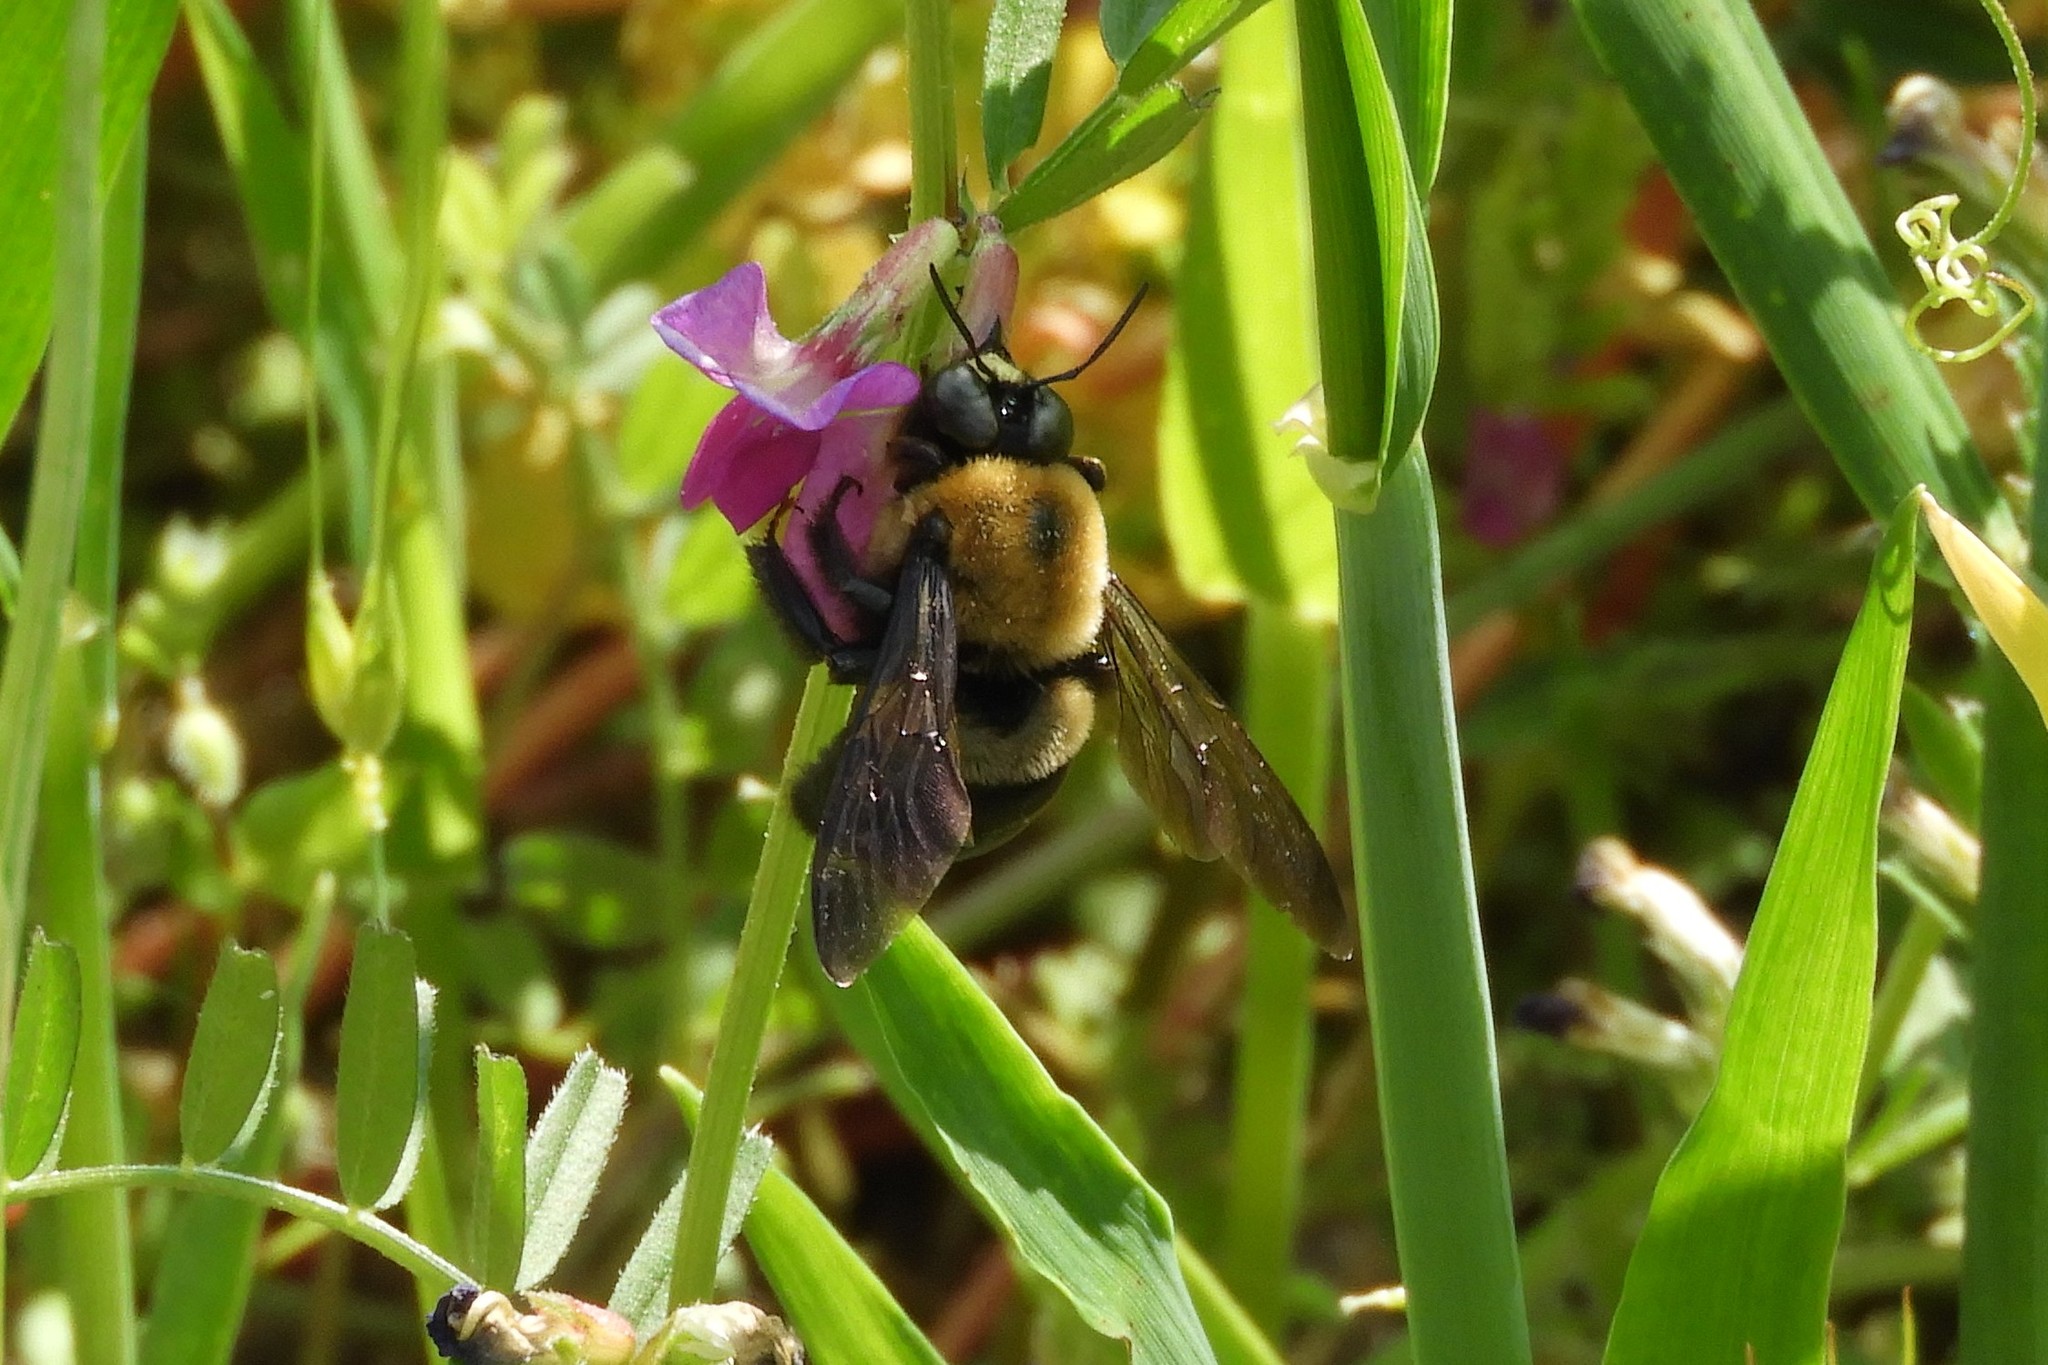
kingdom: Animalia
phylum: Arthropoda
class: Insecta
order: Hymenoptera
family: Apidae
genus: Xylocopa
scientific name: Xylocopa virginica
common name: Carpenter bee
